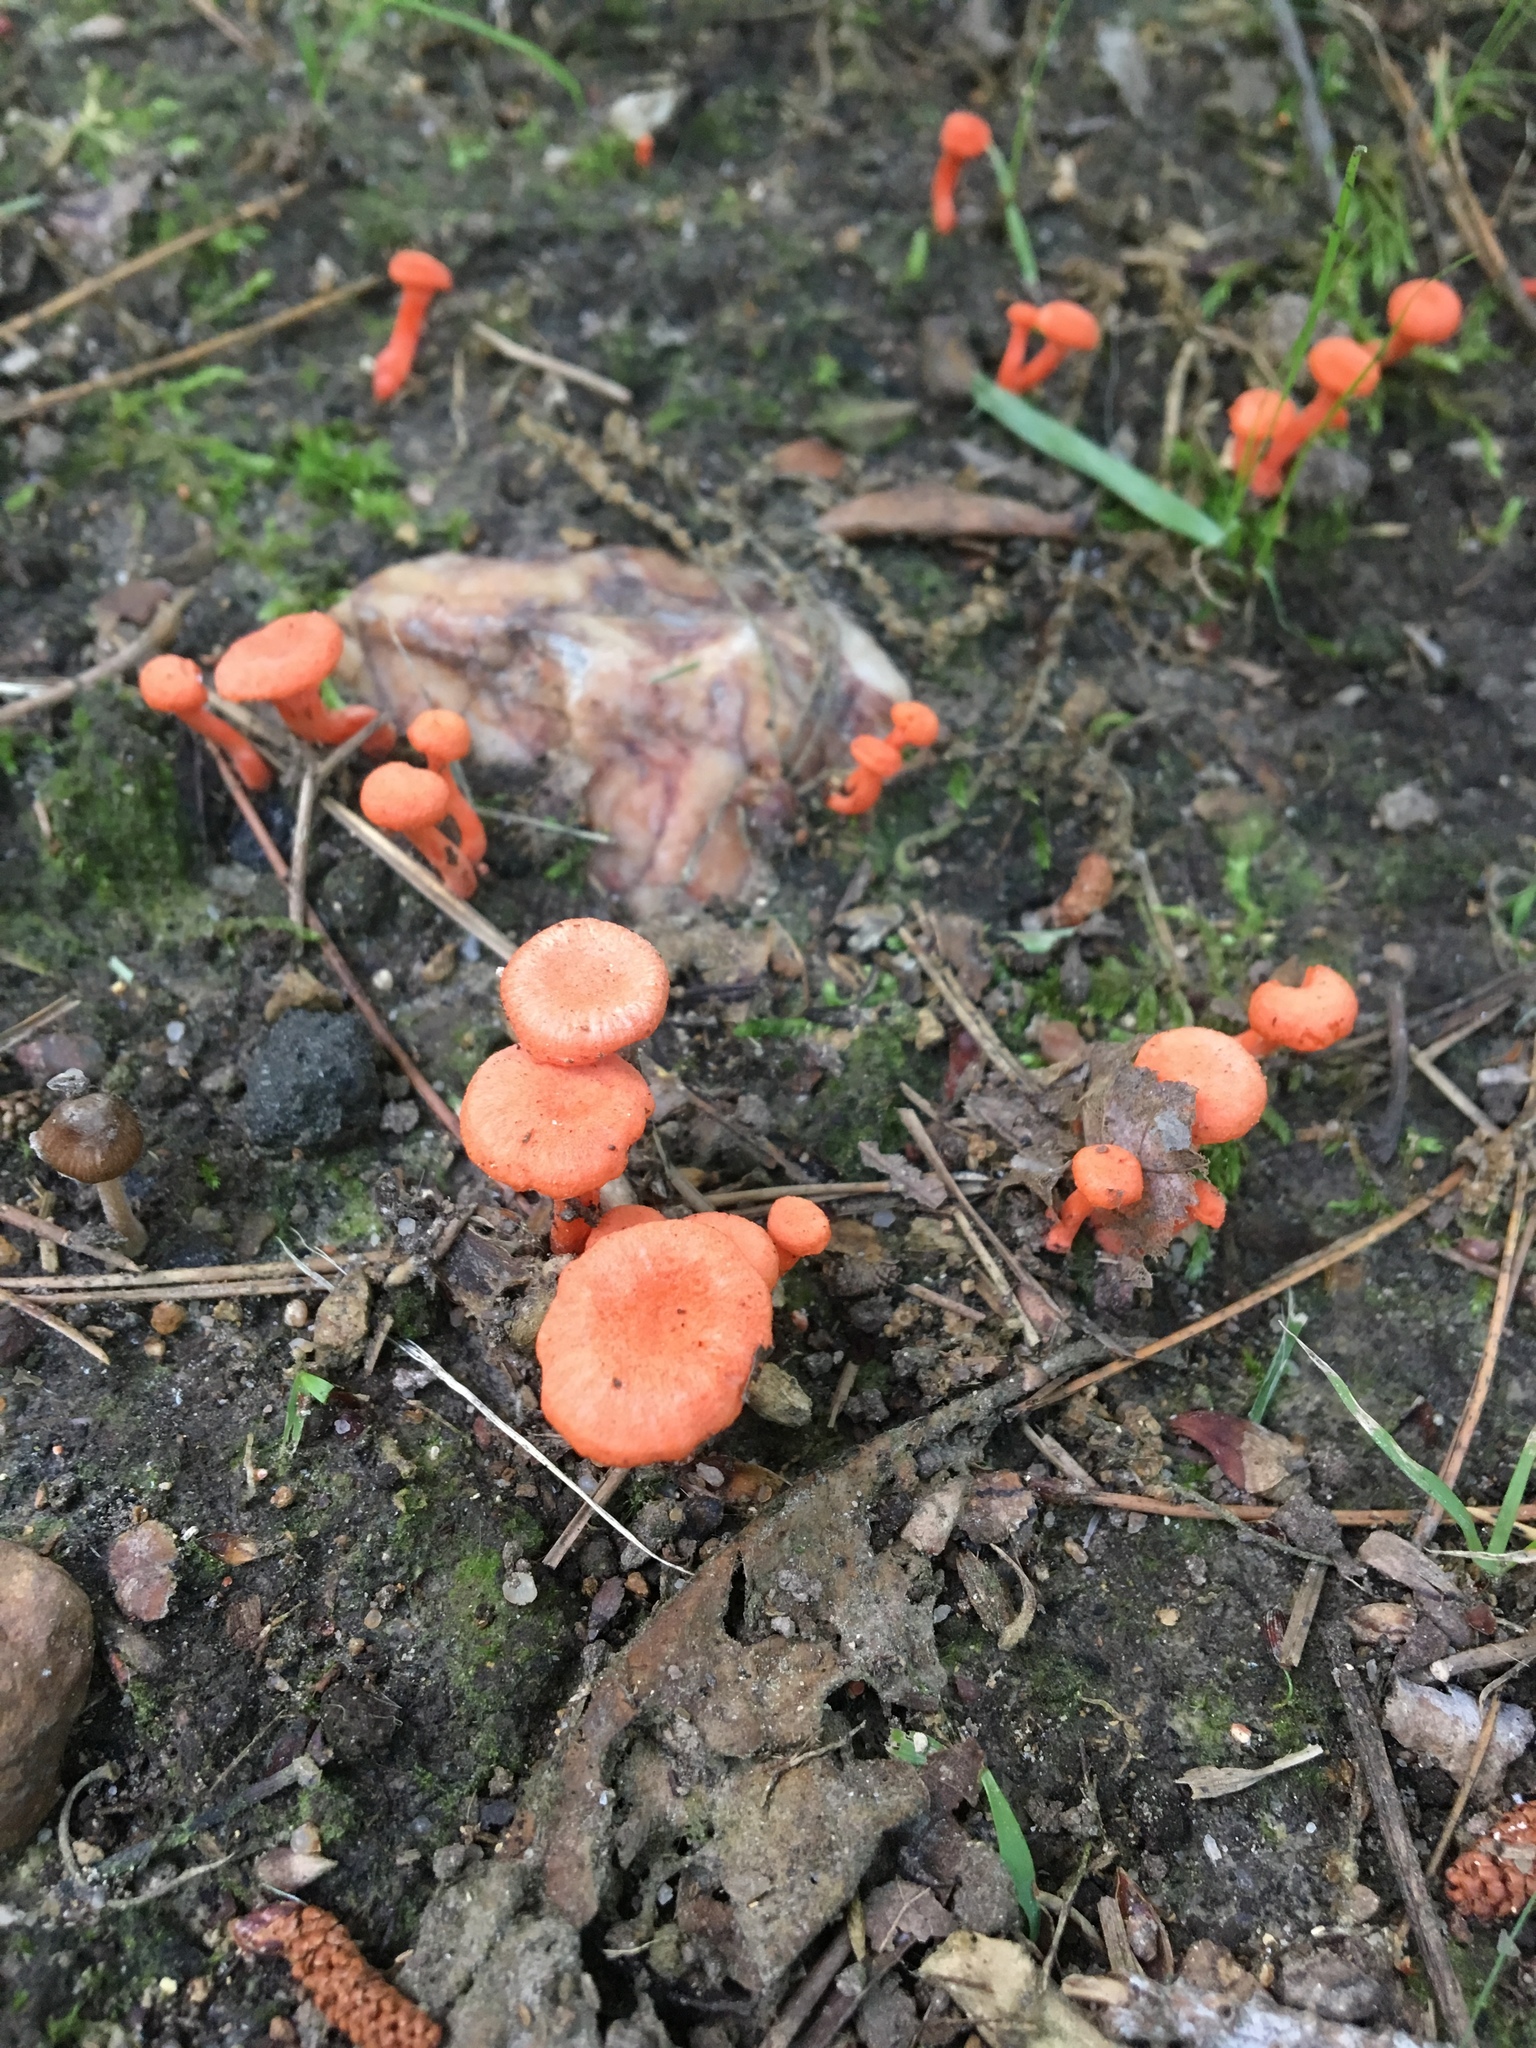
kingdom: Fungi
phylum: Basidiomycota
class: Agaricomycetes
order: Cantharellales
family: Hydnaceae
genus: Cantharellus
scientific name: Cantharellus cinnabarinus
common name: Cinnabar chanterelle
